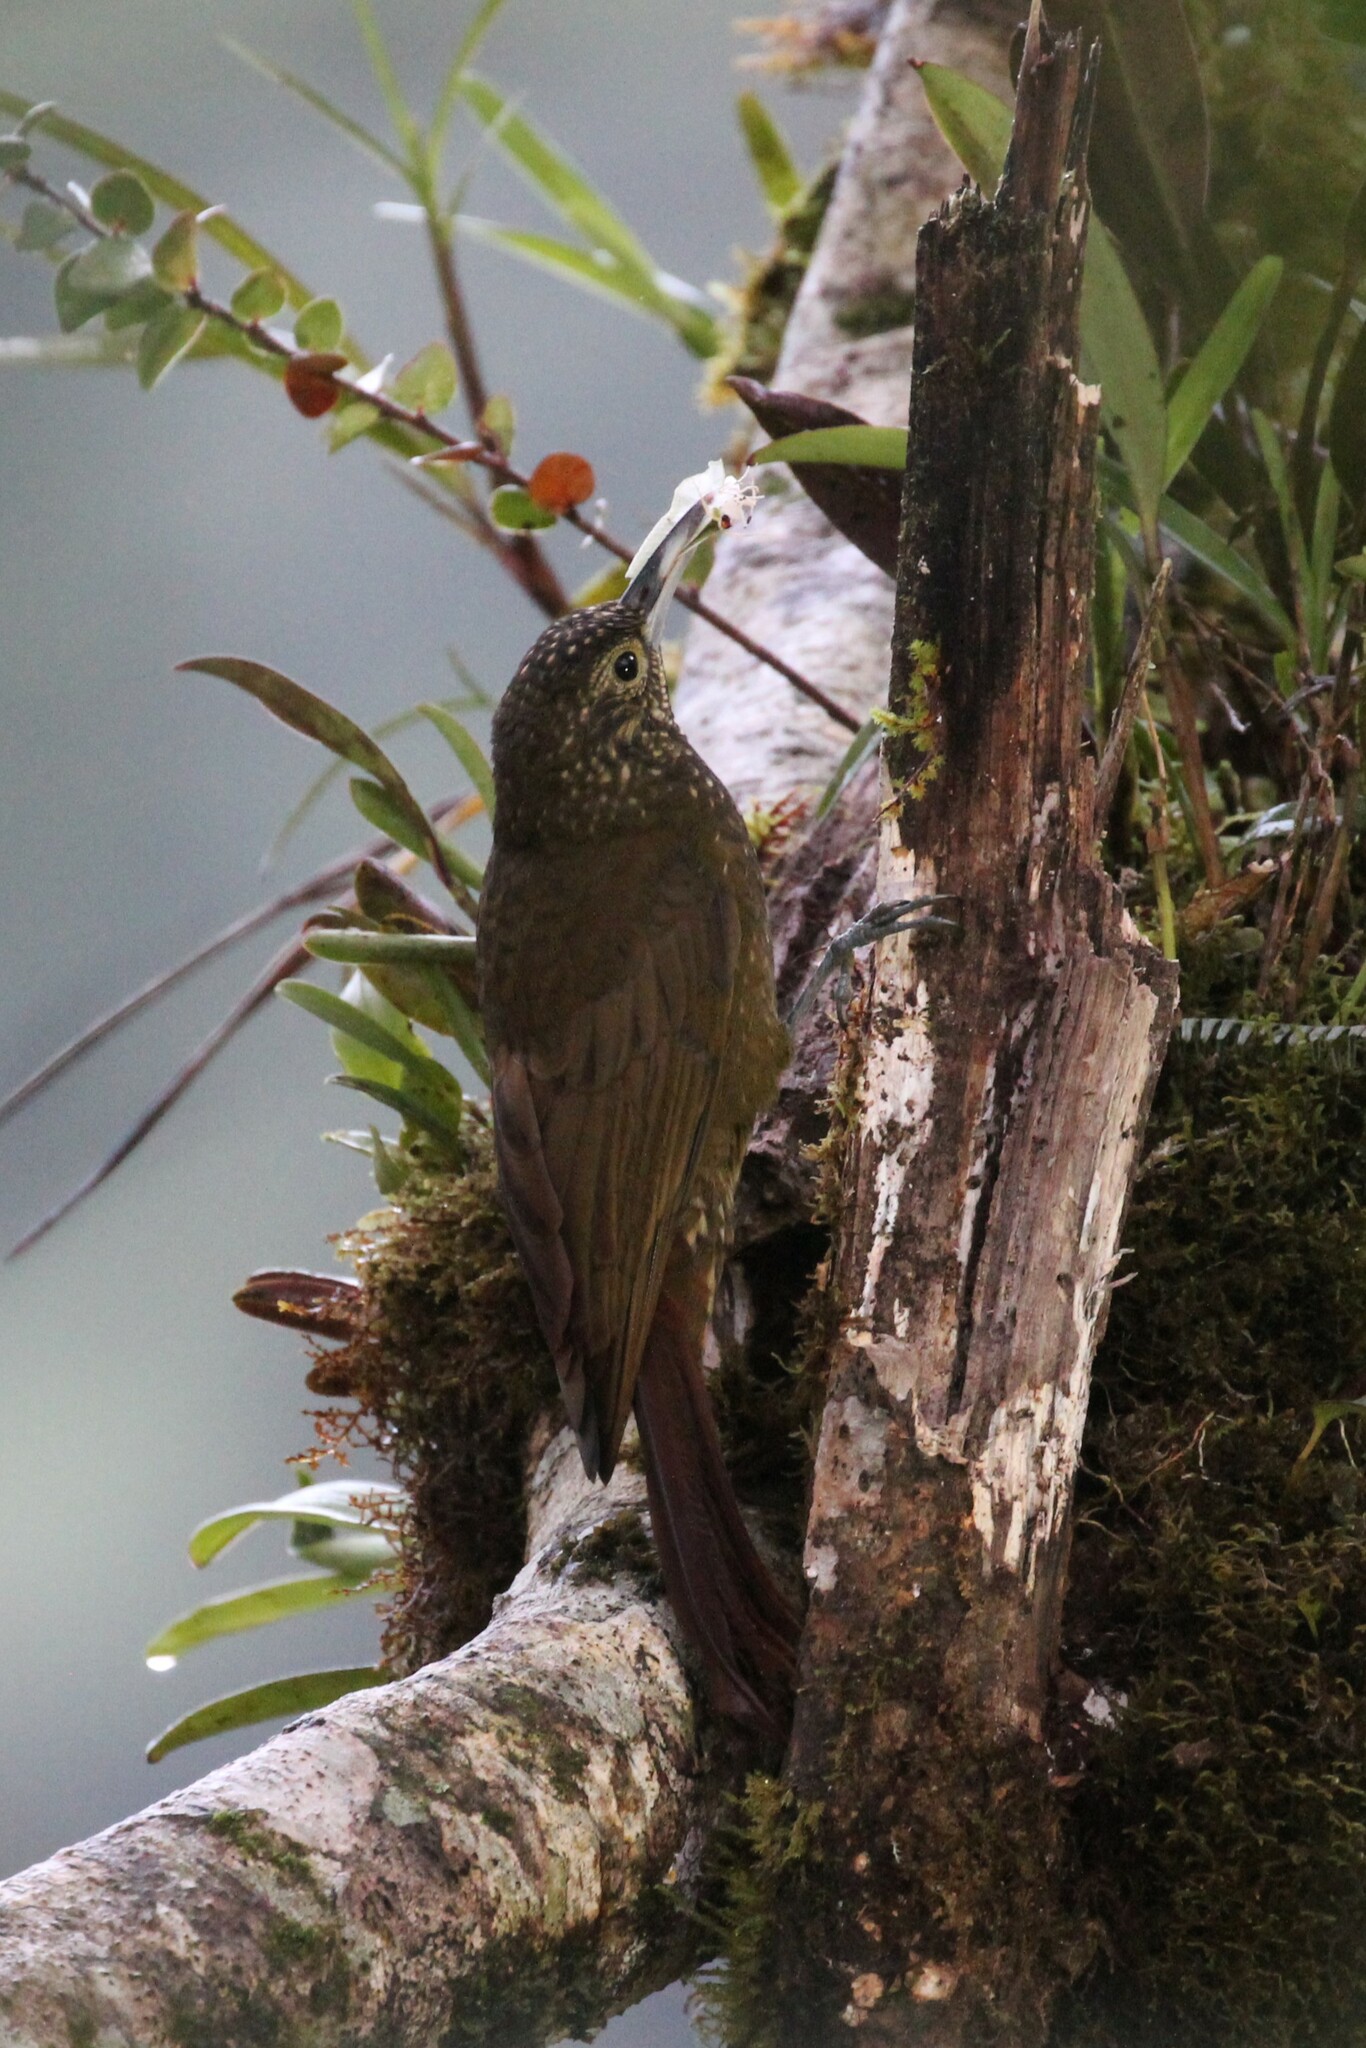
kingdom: Animalia
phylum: Chordata
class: Aves
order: Passeriformes
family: Furnariidae
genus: Xiphorhynchus
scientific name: Xiphorhynchus triangularis
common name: Olive-backed woodcreeper
